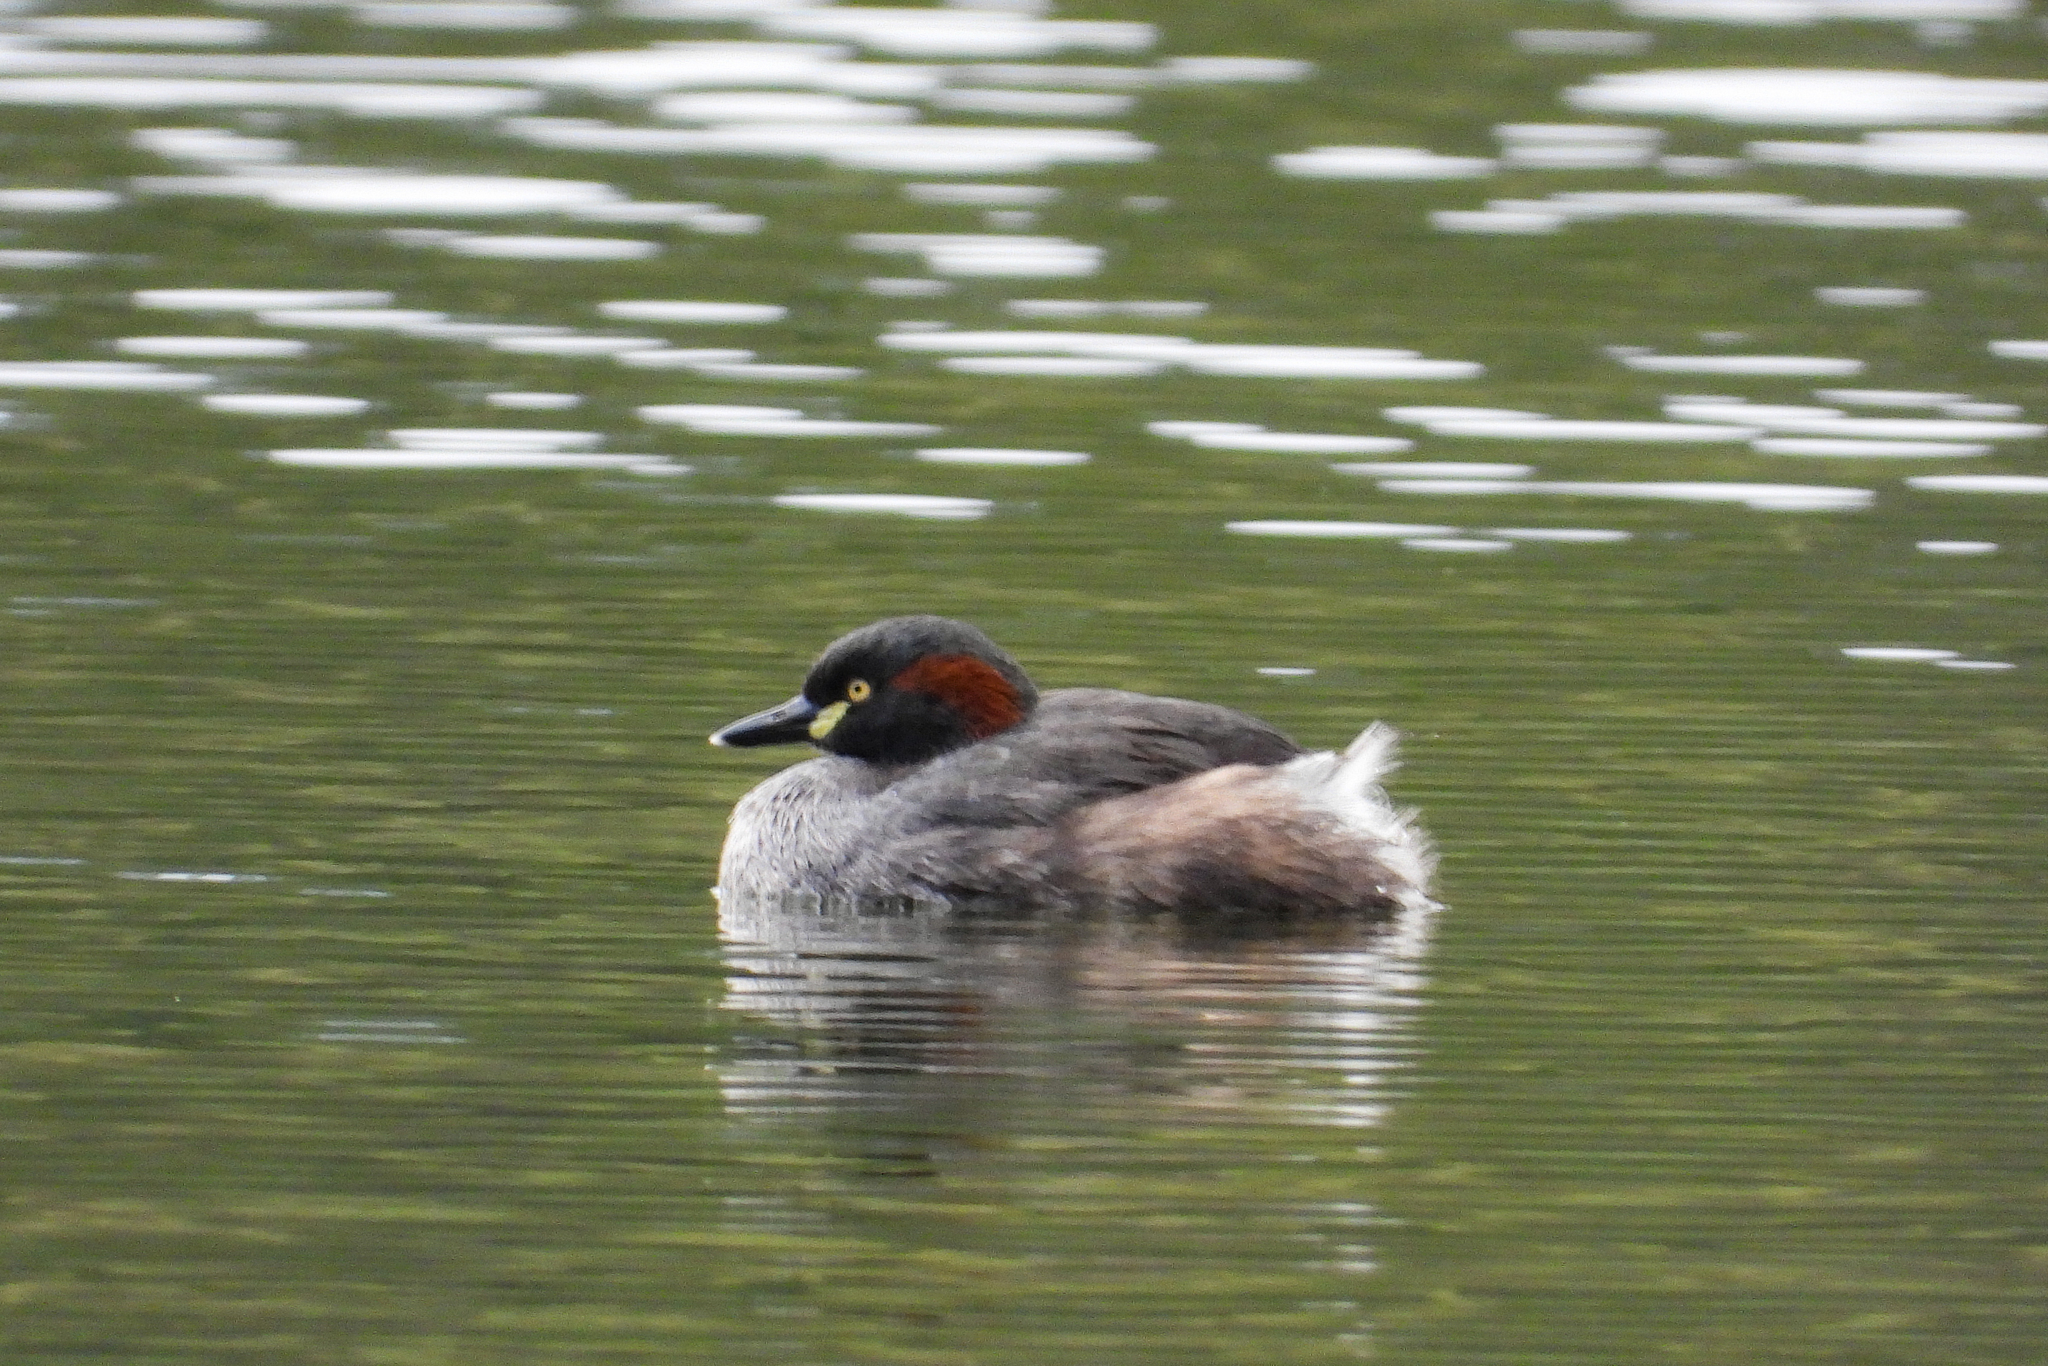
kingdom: Animalia
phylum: Chordata
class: Aves
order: Podicipediformes
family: Podicipedidae
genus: Tachybaptus
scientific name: Tachybaptus novaehollandiae
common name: Australasian grebe
